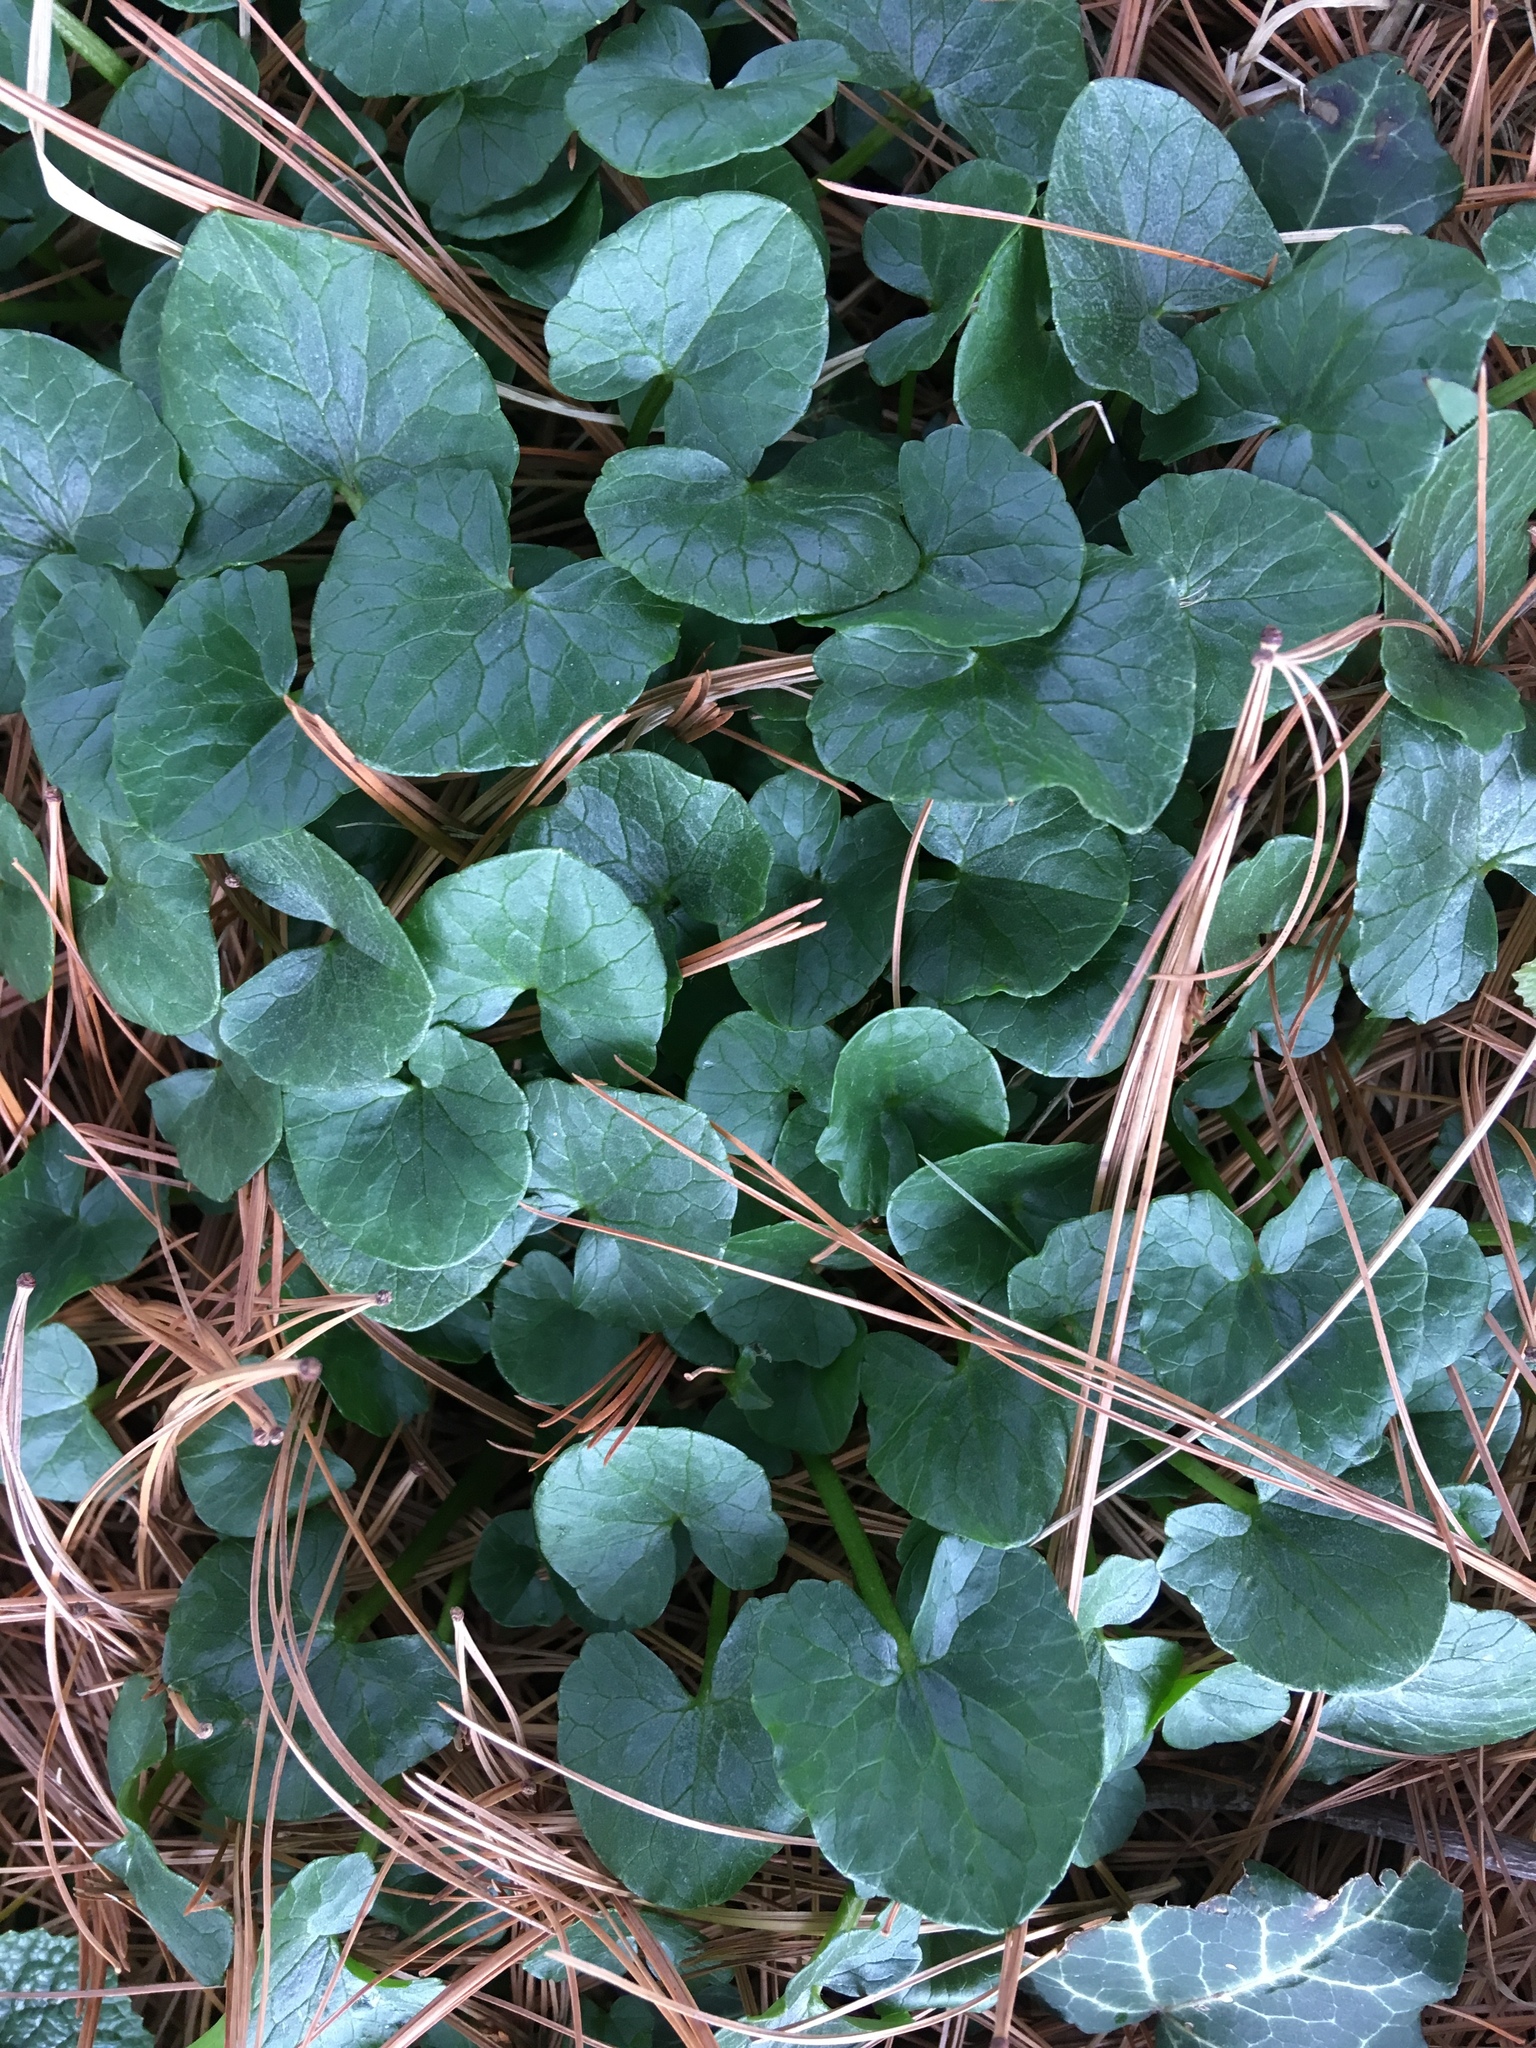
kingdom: Plantae
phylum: Tracheophyta
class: Magnoliopsida
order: Ranunculales
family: Ranunculaceae
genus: Ficaria
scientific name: Ficaria verna
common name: Lesser celandine
